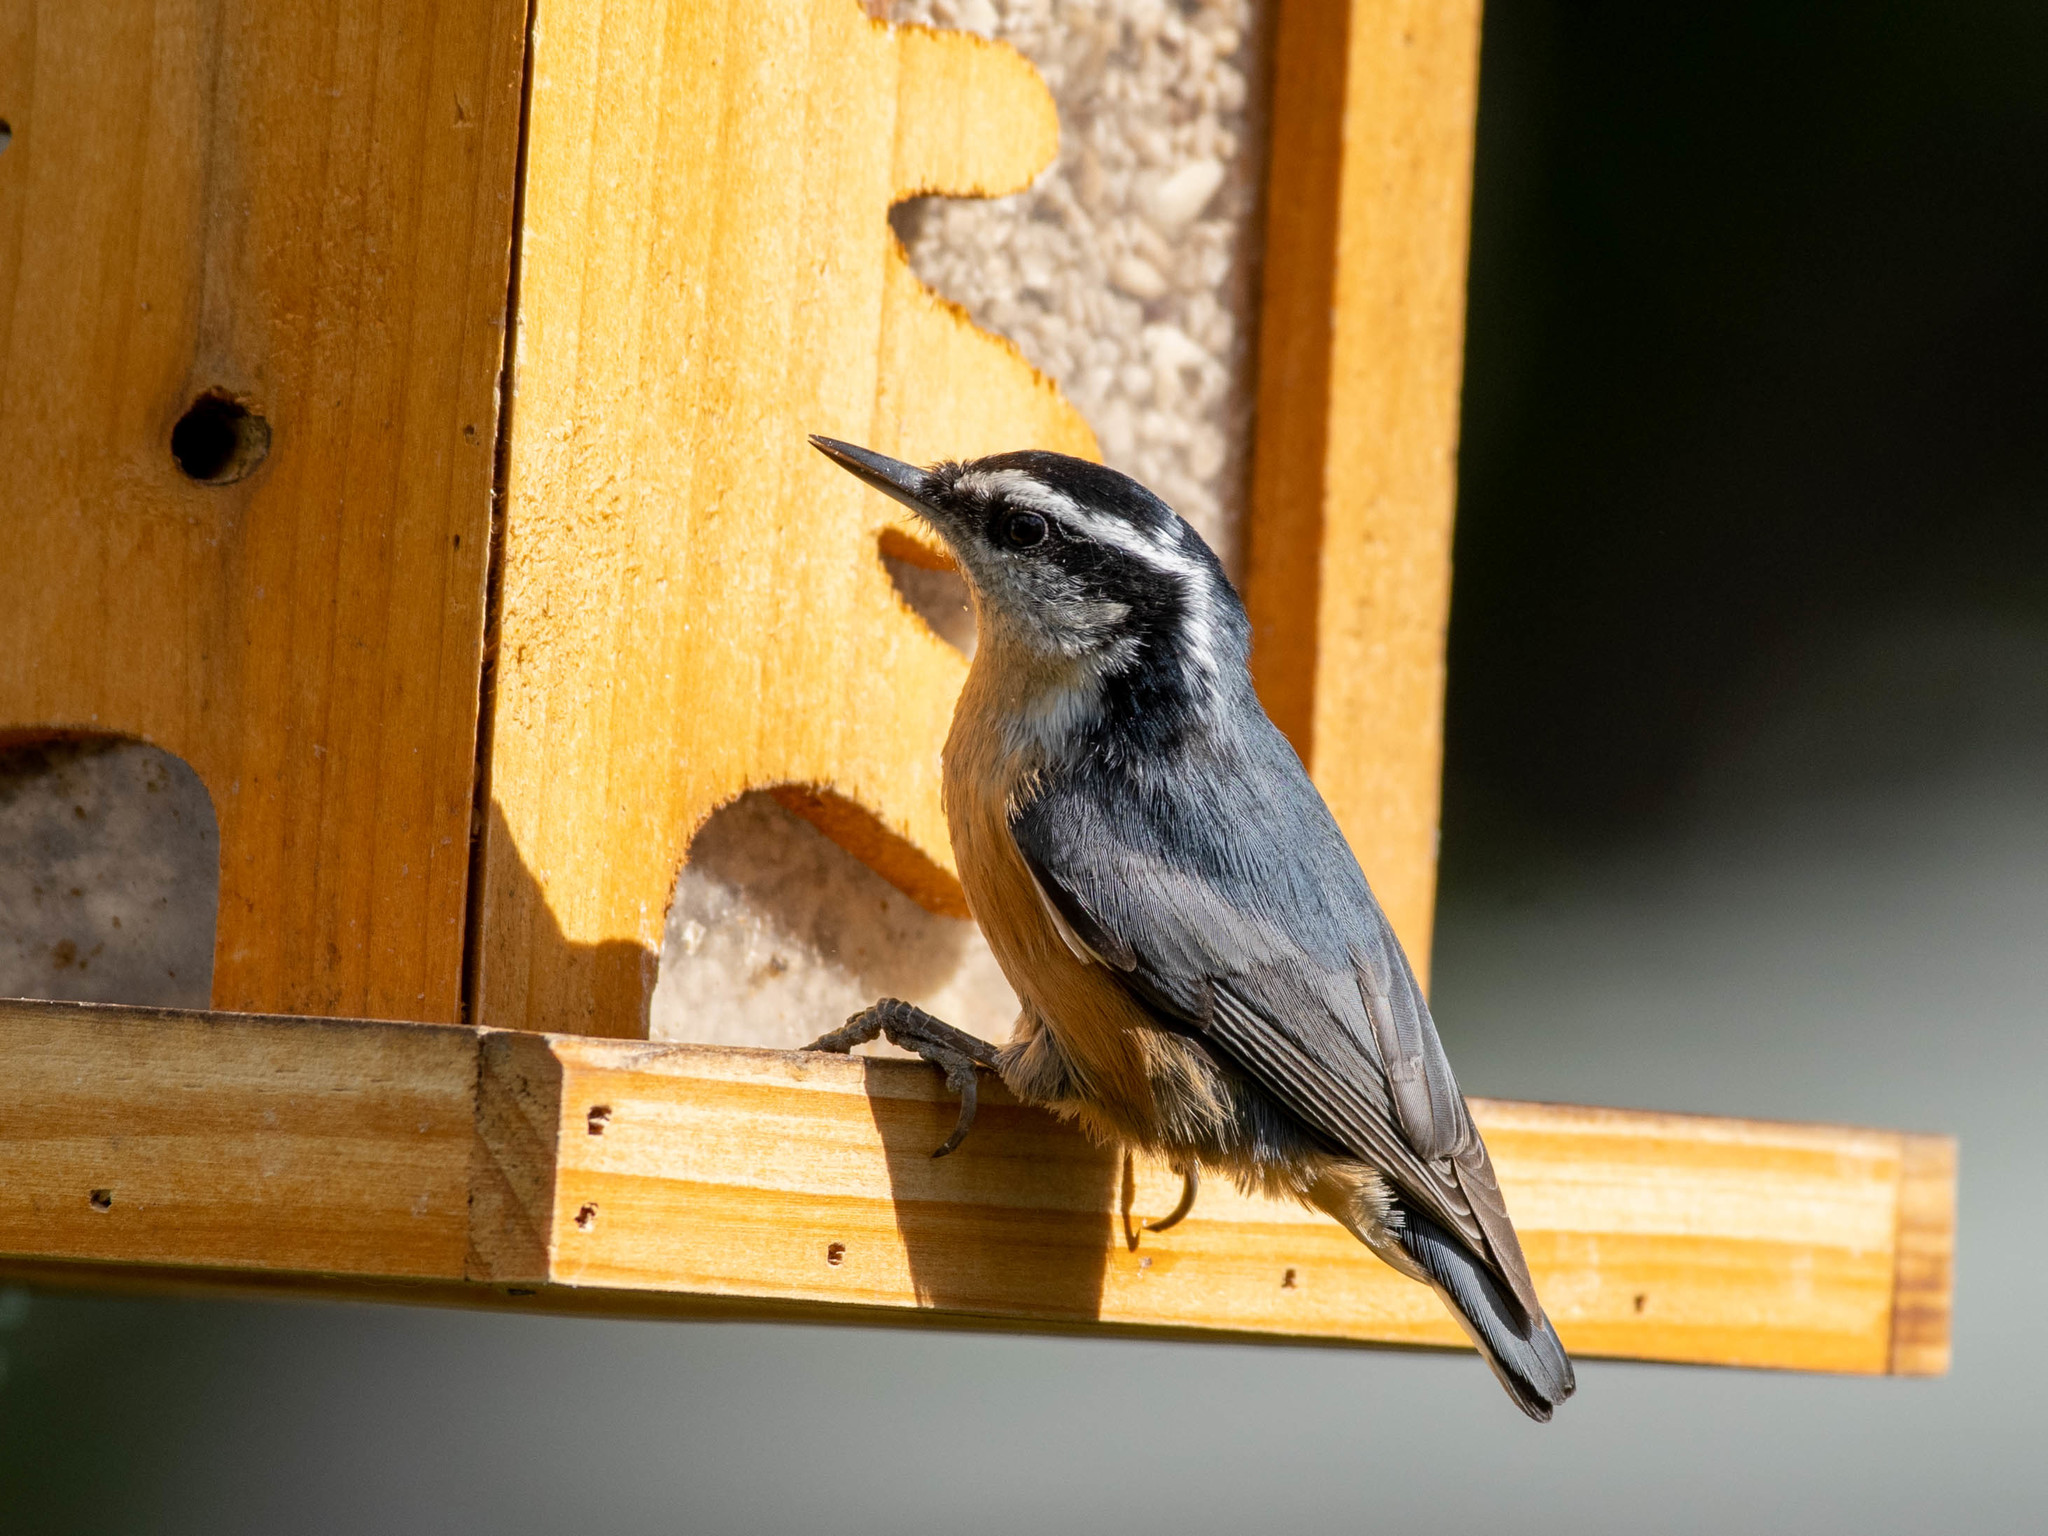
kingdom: Animalia
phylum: Chordata
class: Aves
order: Passeriformes
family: Sittidae
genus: Sitta
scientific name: Sitta canadensis
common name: Red-breasted nuthatch
